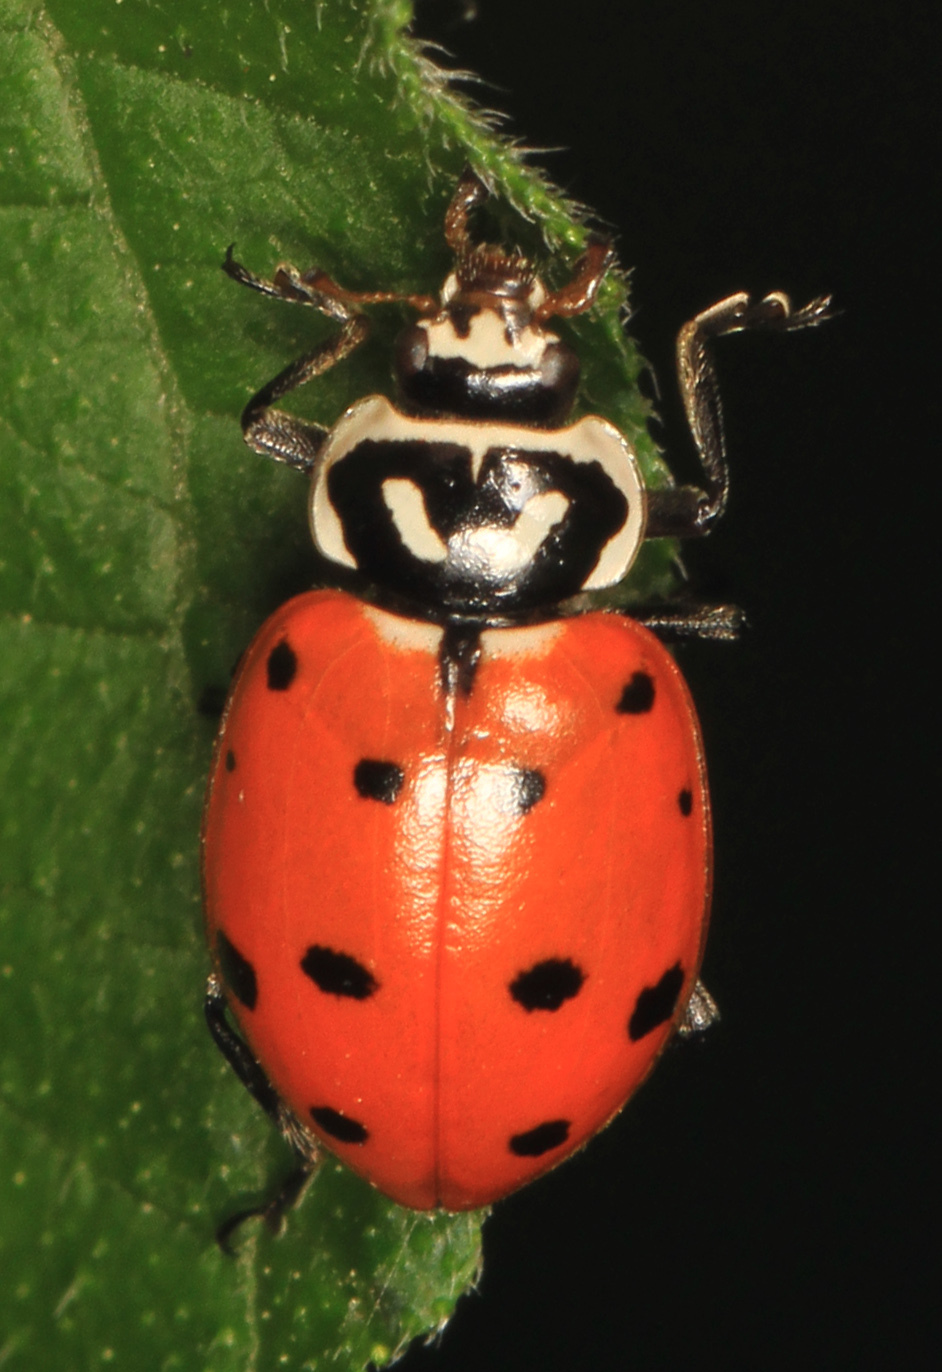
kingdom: Animalia
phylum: Arthropoda
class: Insecta
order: Coleoptera
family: Coccinellidae
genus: Hippodamia
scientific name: Hippodamia convergens
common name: Convergent lady beetle
